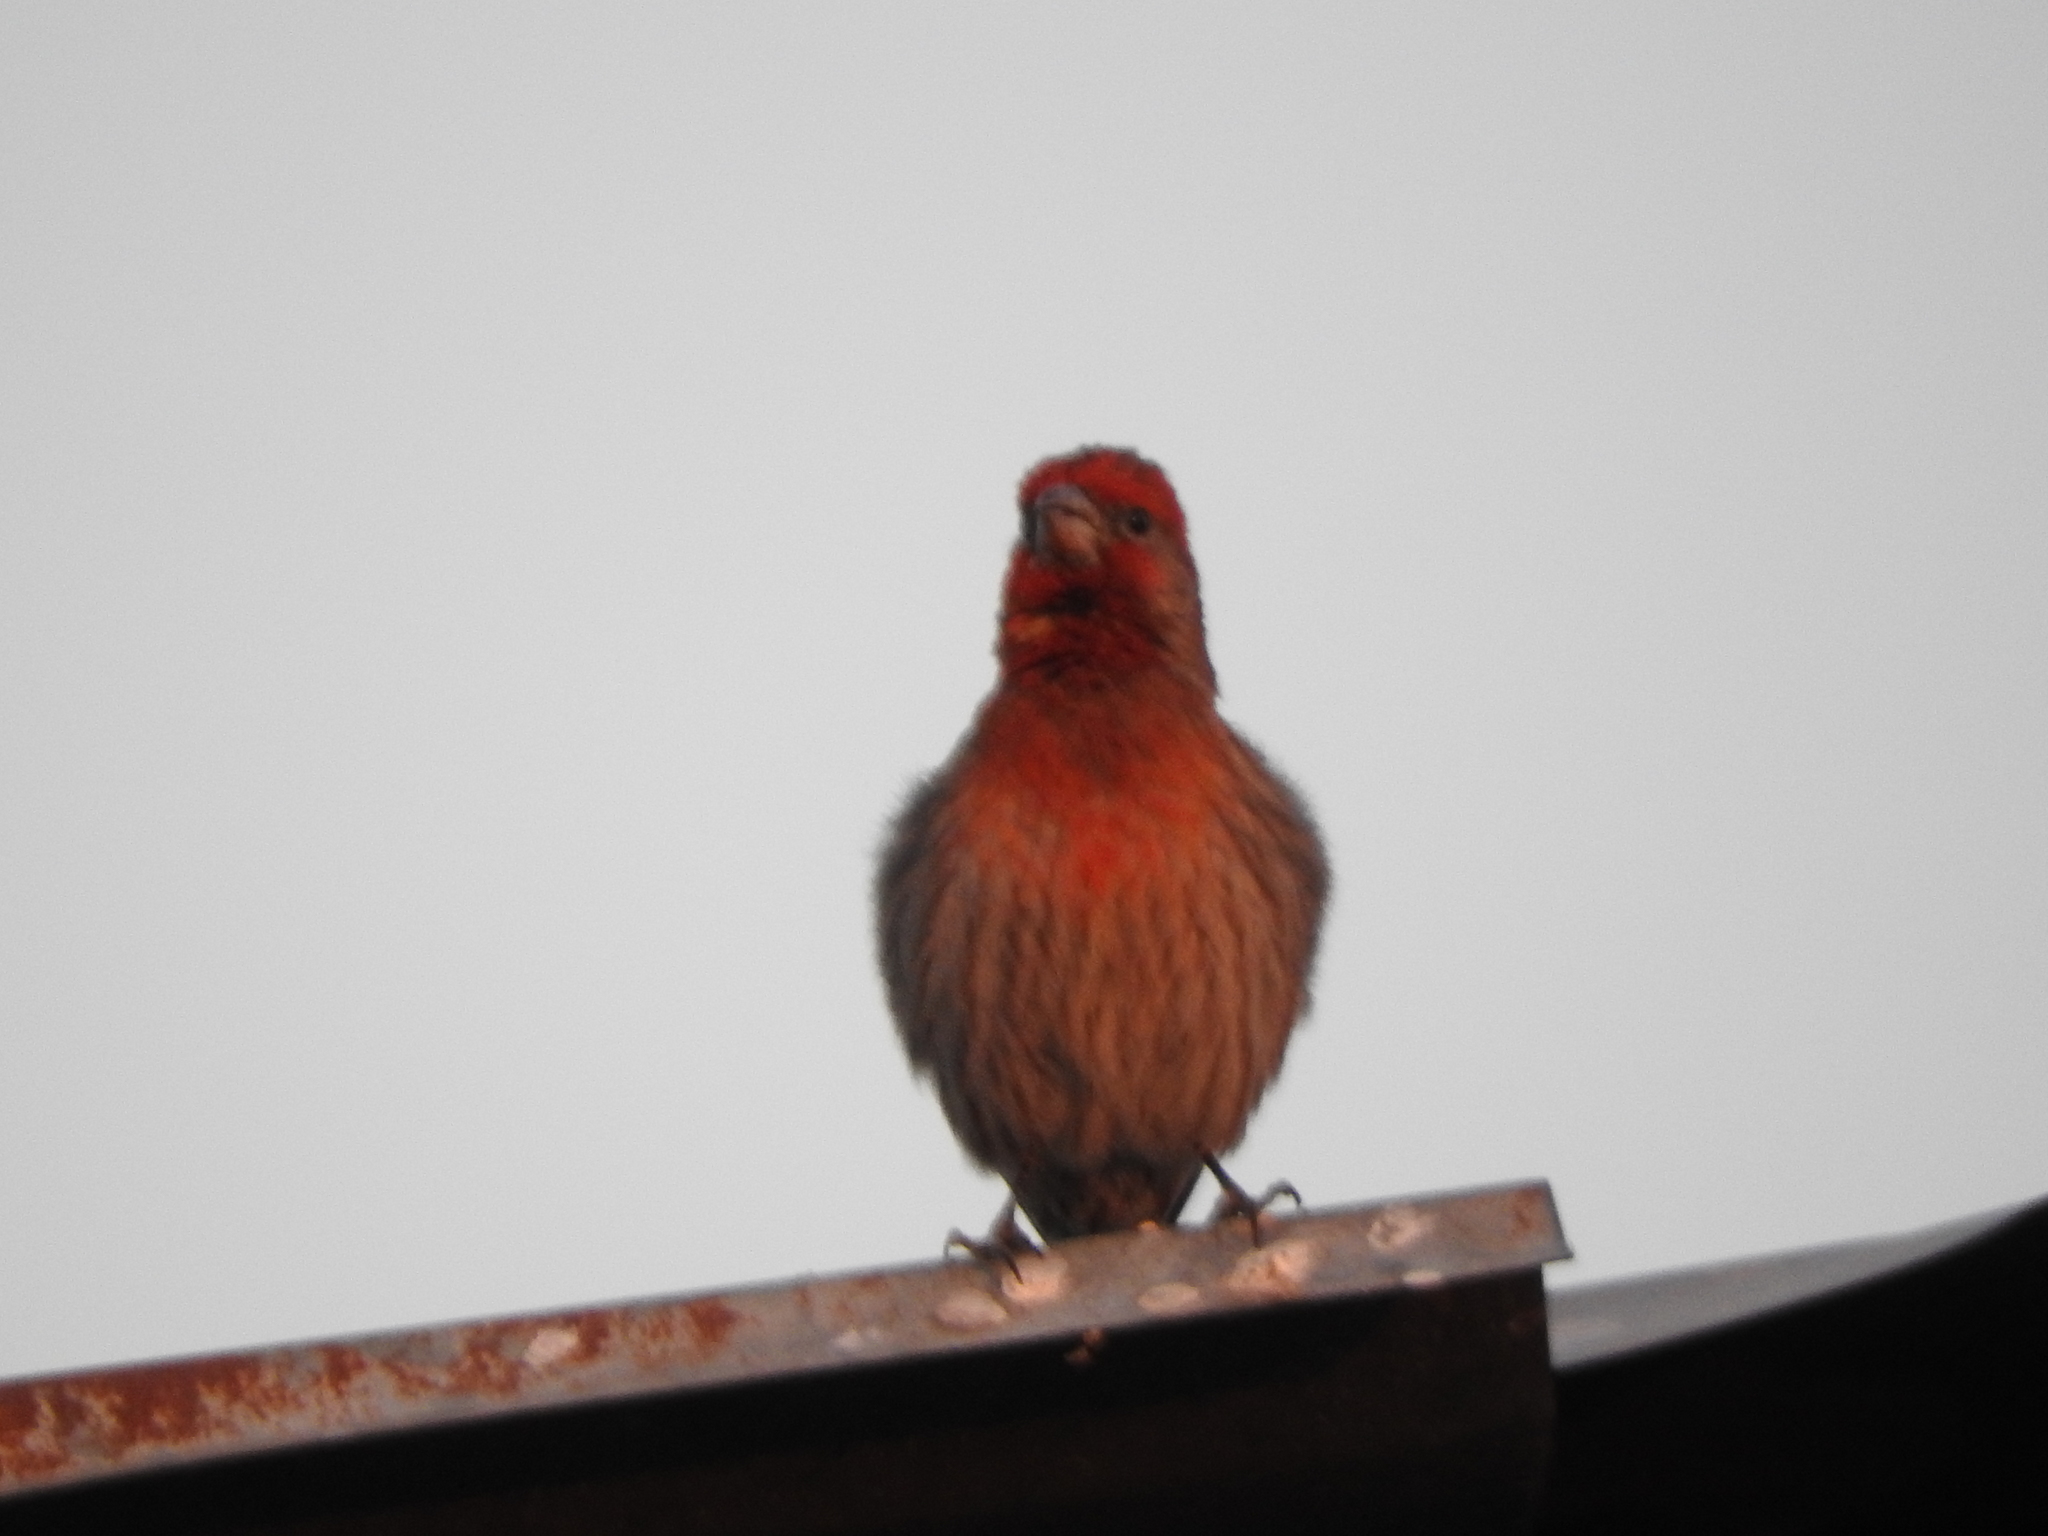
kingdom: Animalia
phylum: Chordata
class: Aves
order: Passeriformes
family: Fringillidae
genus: Haemorhous
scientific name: Haemorhous mexicanus
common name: House finch
